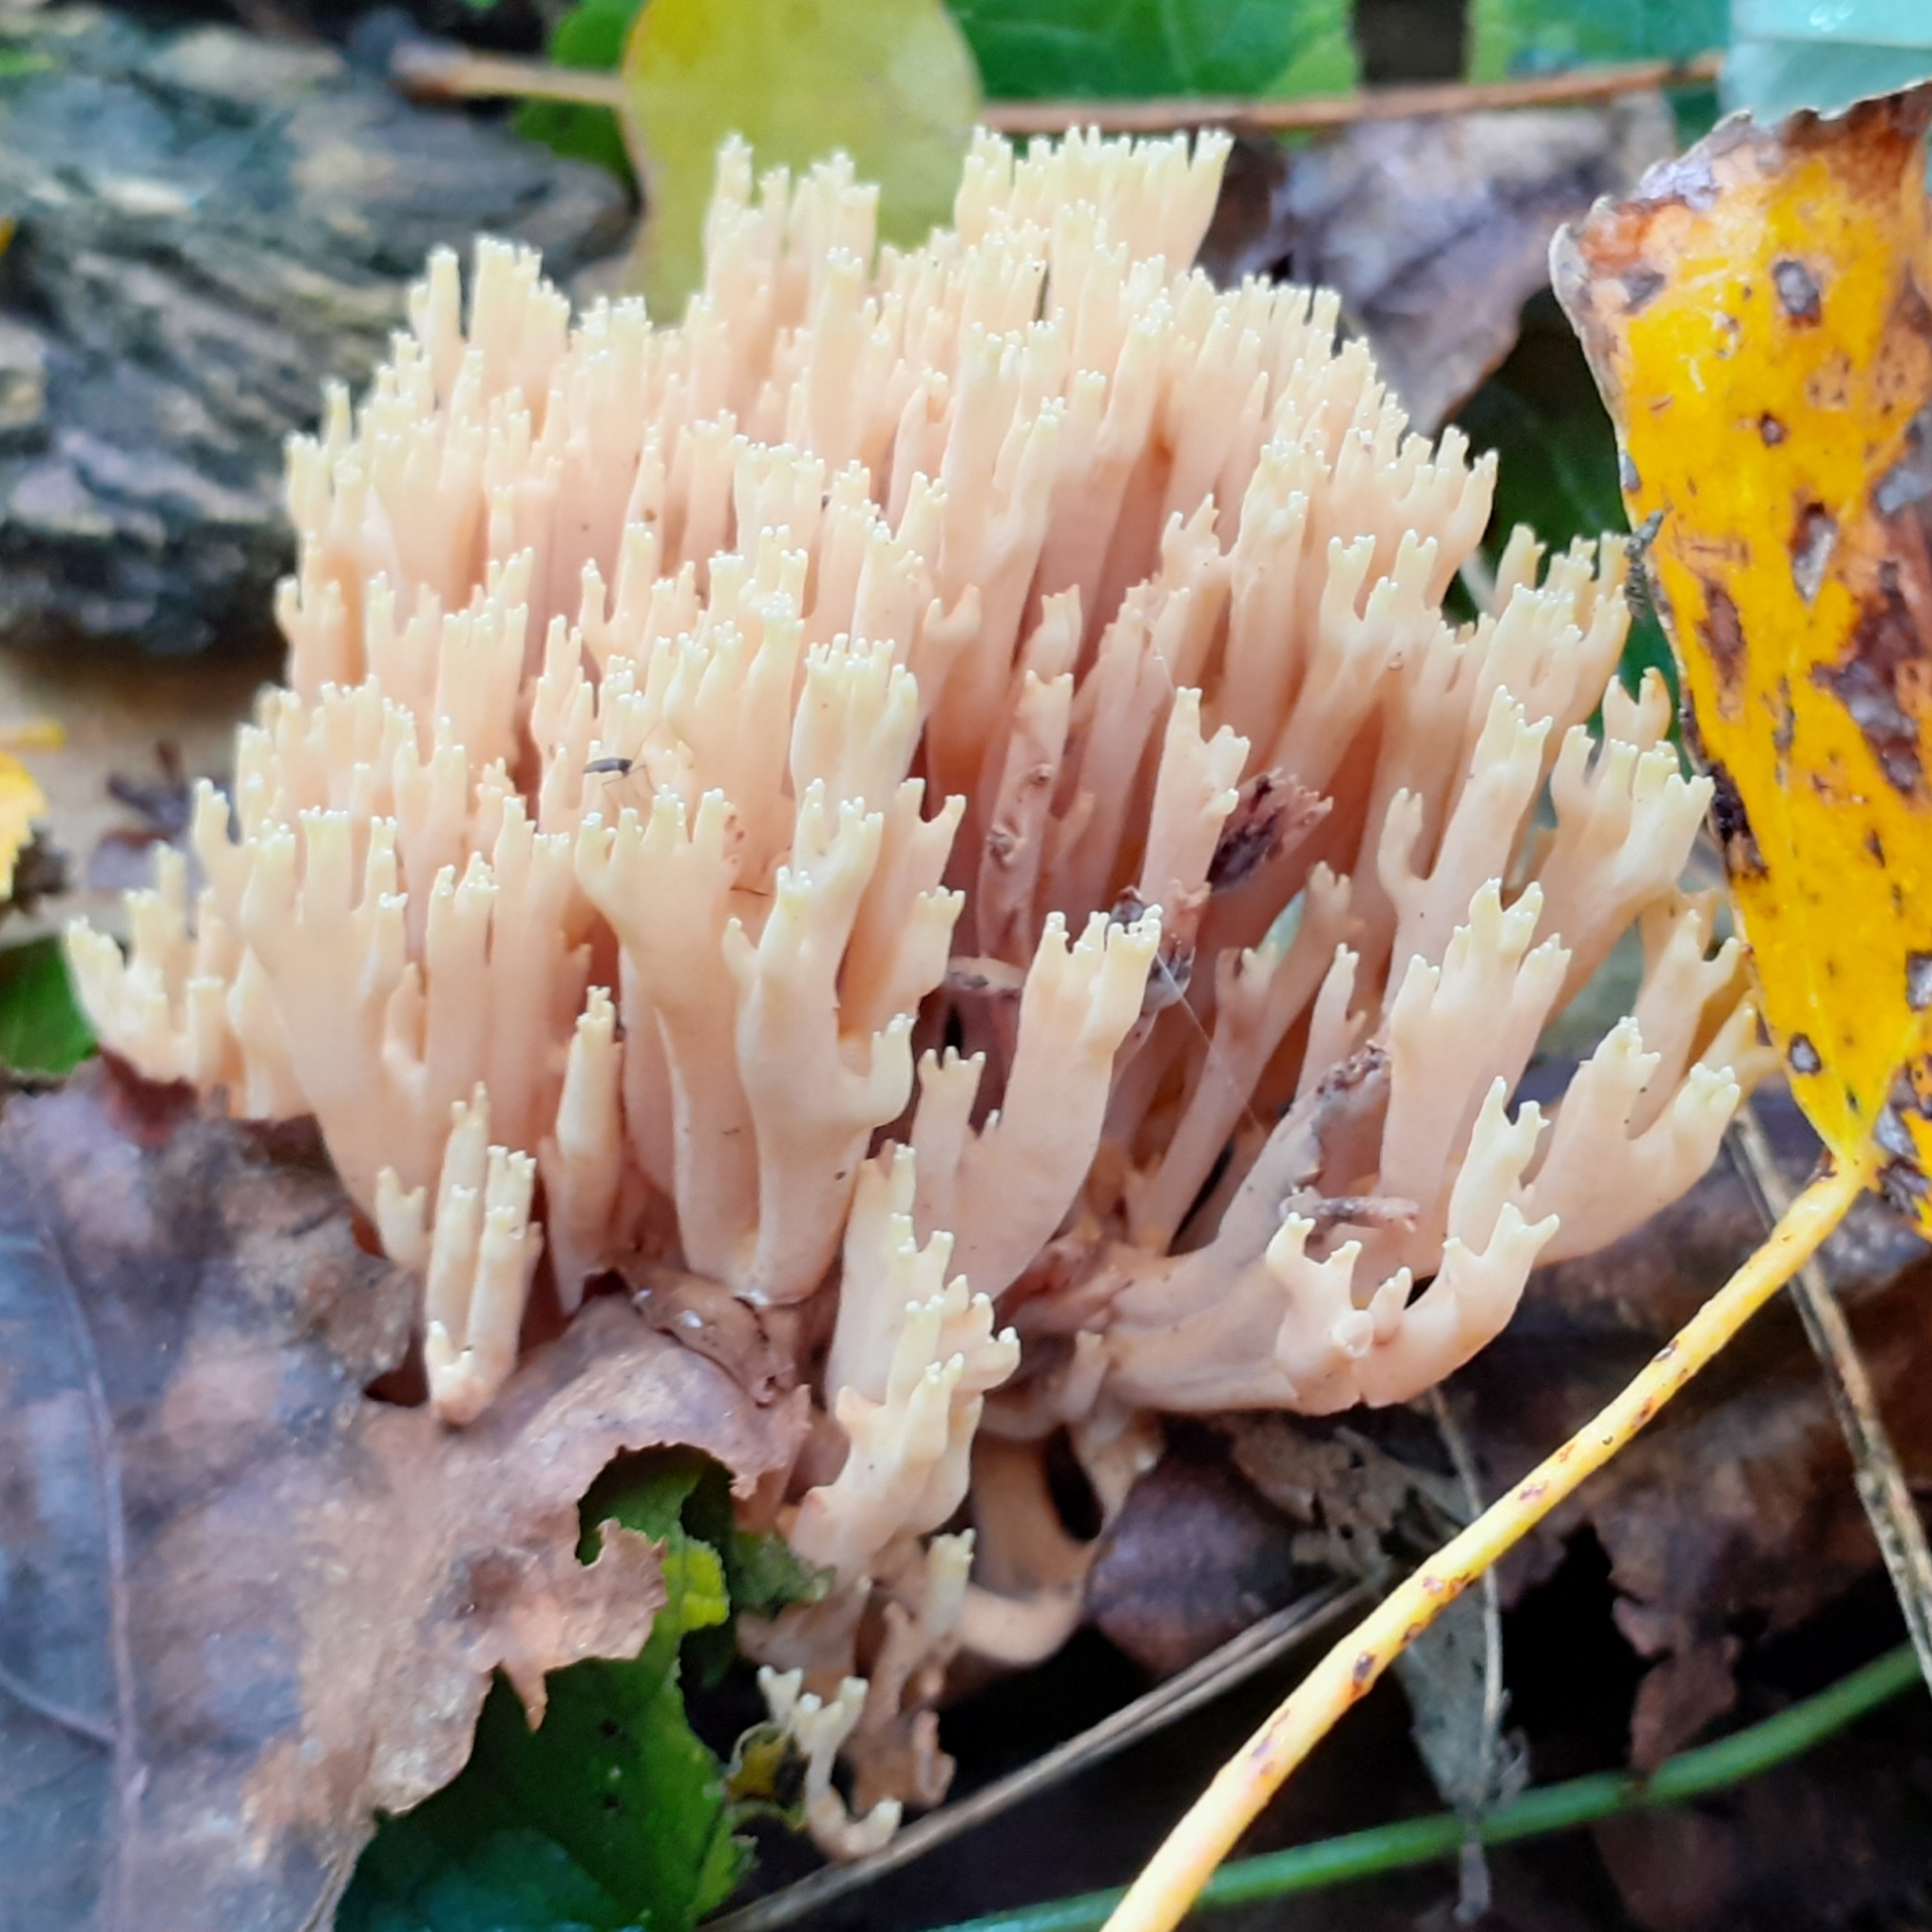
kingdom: Fungi
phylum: Basidiomycota
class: Agaricomycetes
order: Gomphales
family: Gomphaceae
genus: Ramaria
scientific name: Ramaria stricta
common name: Upright coral
